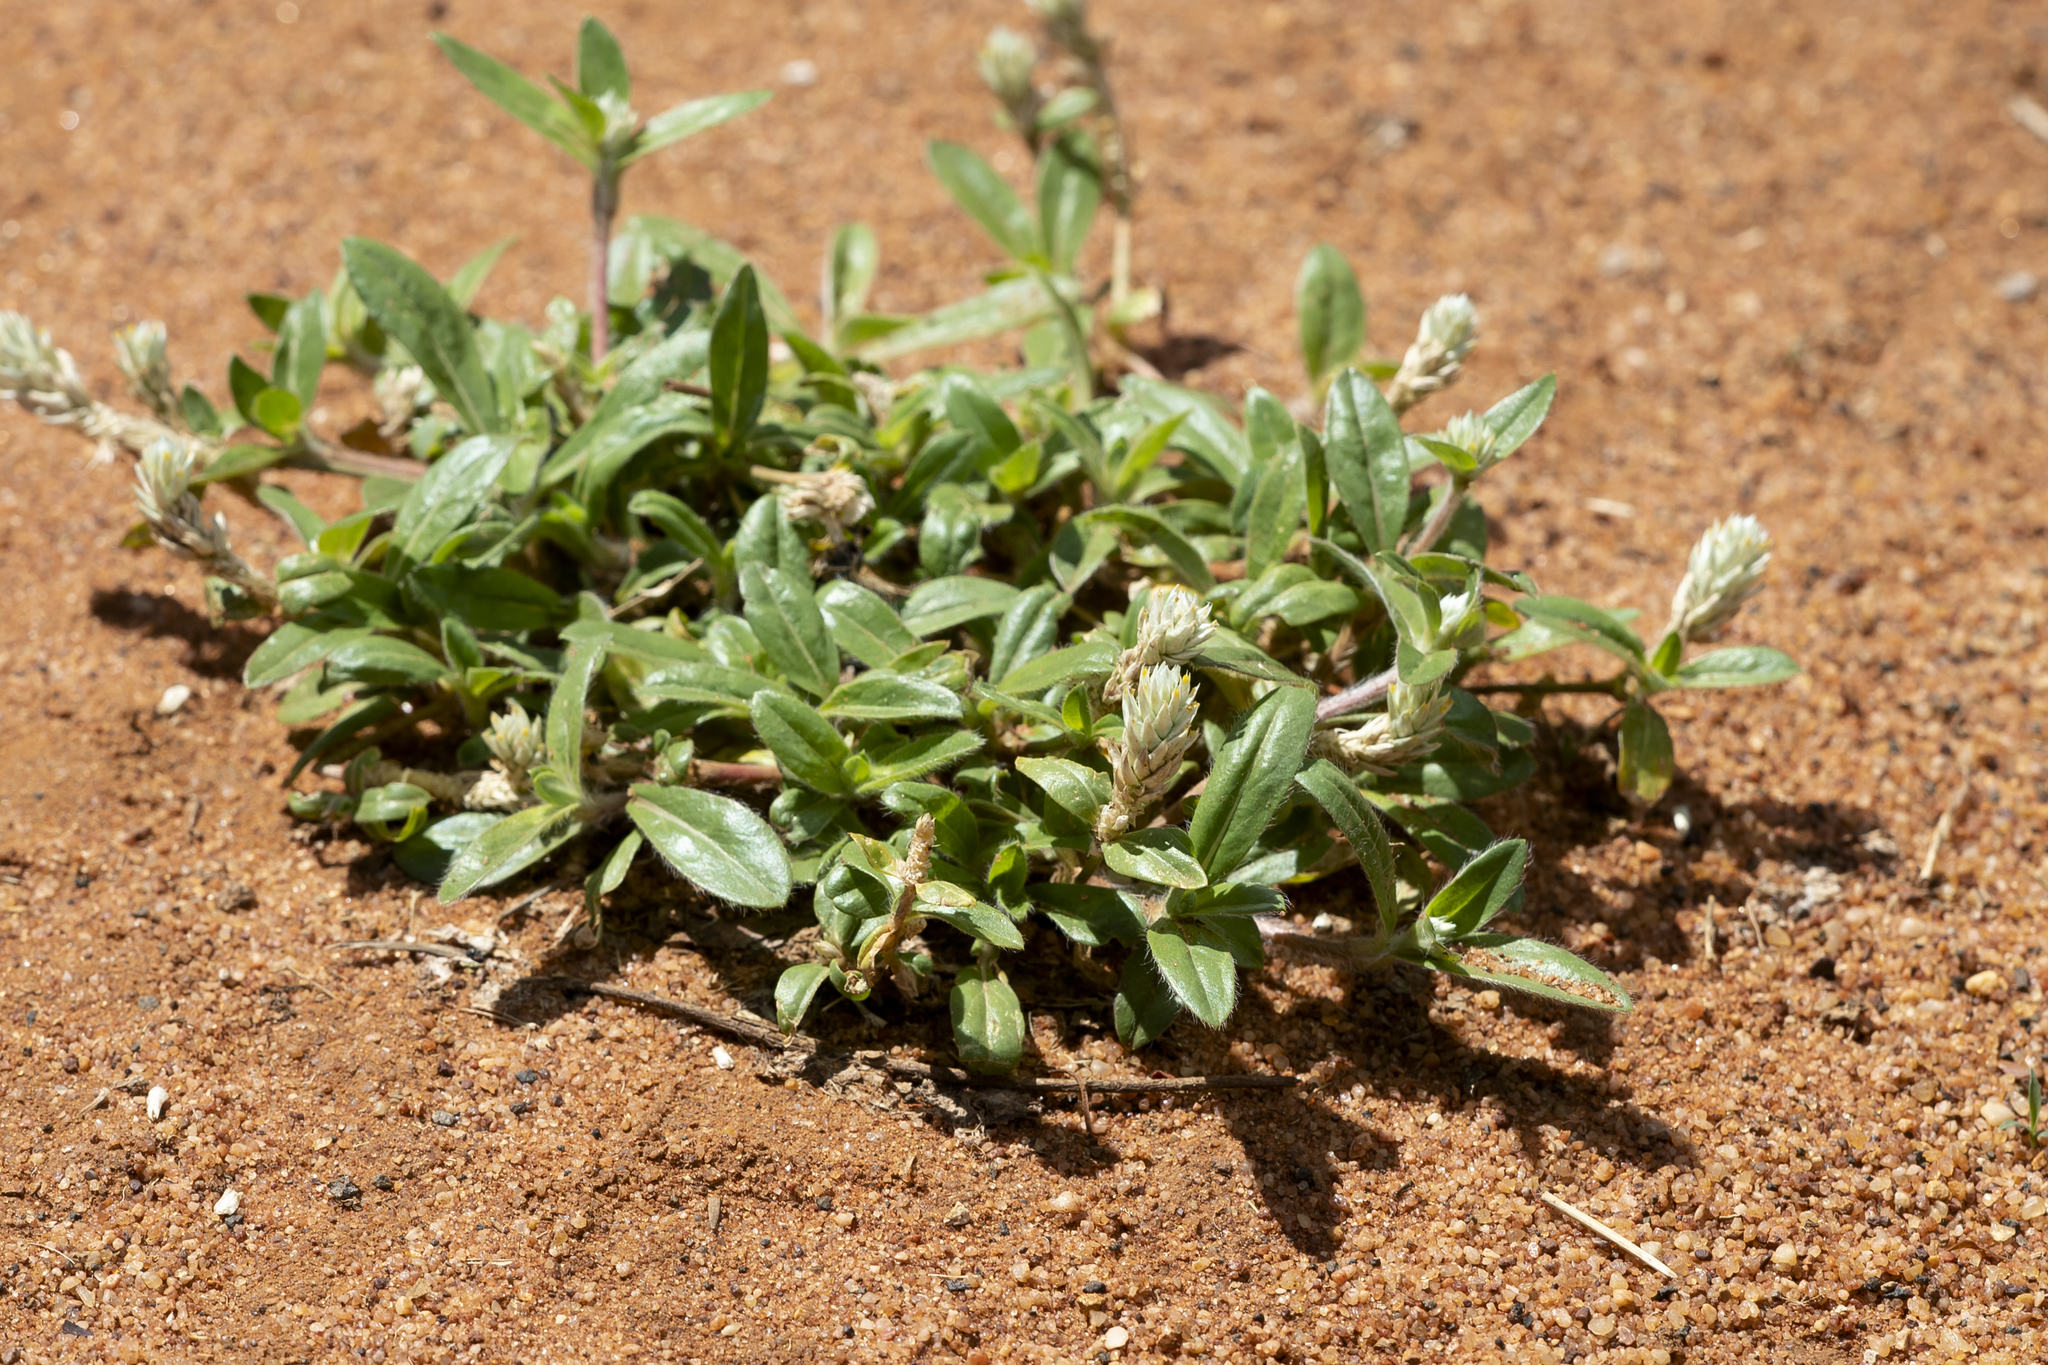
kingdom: Plantae
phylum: Tracheophyta
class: Magnoliopsida
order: Caryophyllales
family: Amaranthaceae
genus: Gomphrena
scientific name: Gomphrena celosioides
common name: Gomphrena-weed
